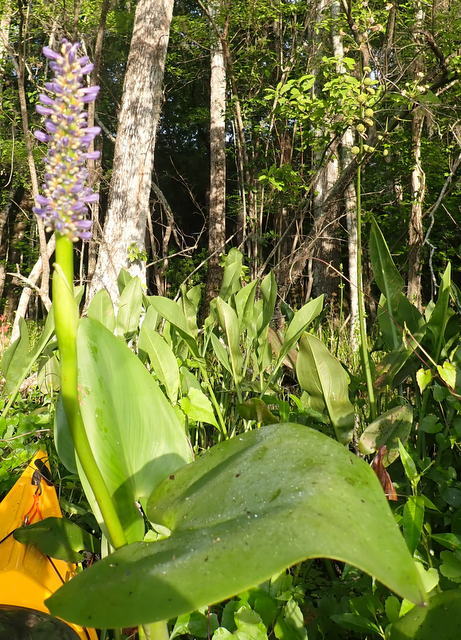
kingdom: Plantae
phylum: Tracheophyta
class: Liliopsida
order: Commelinales
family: Pontederiaceae
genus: Pontederia
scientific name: Pontederia cordata
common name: Pickerelweed
